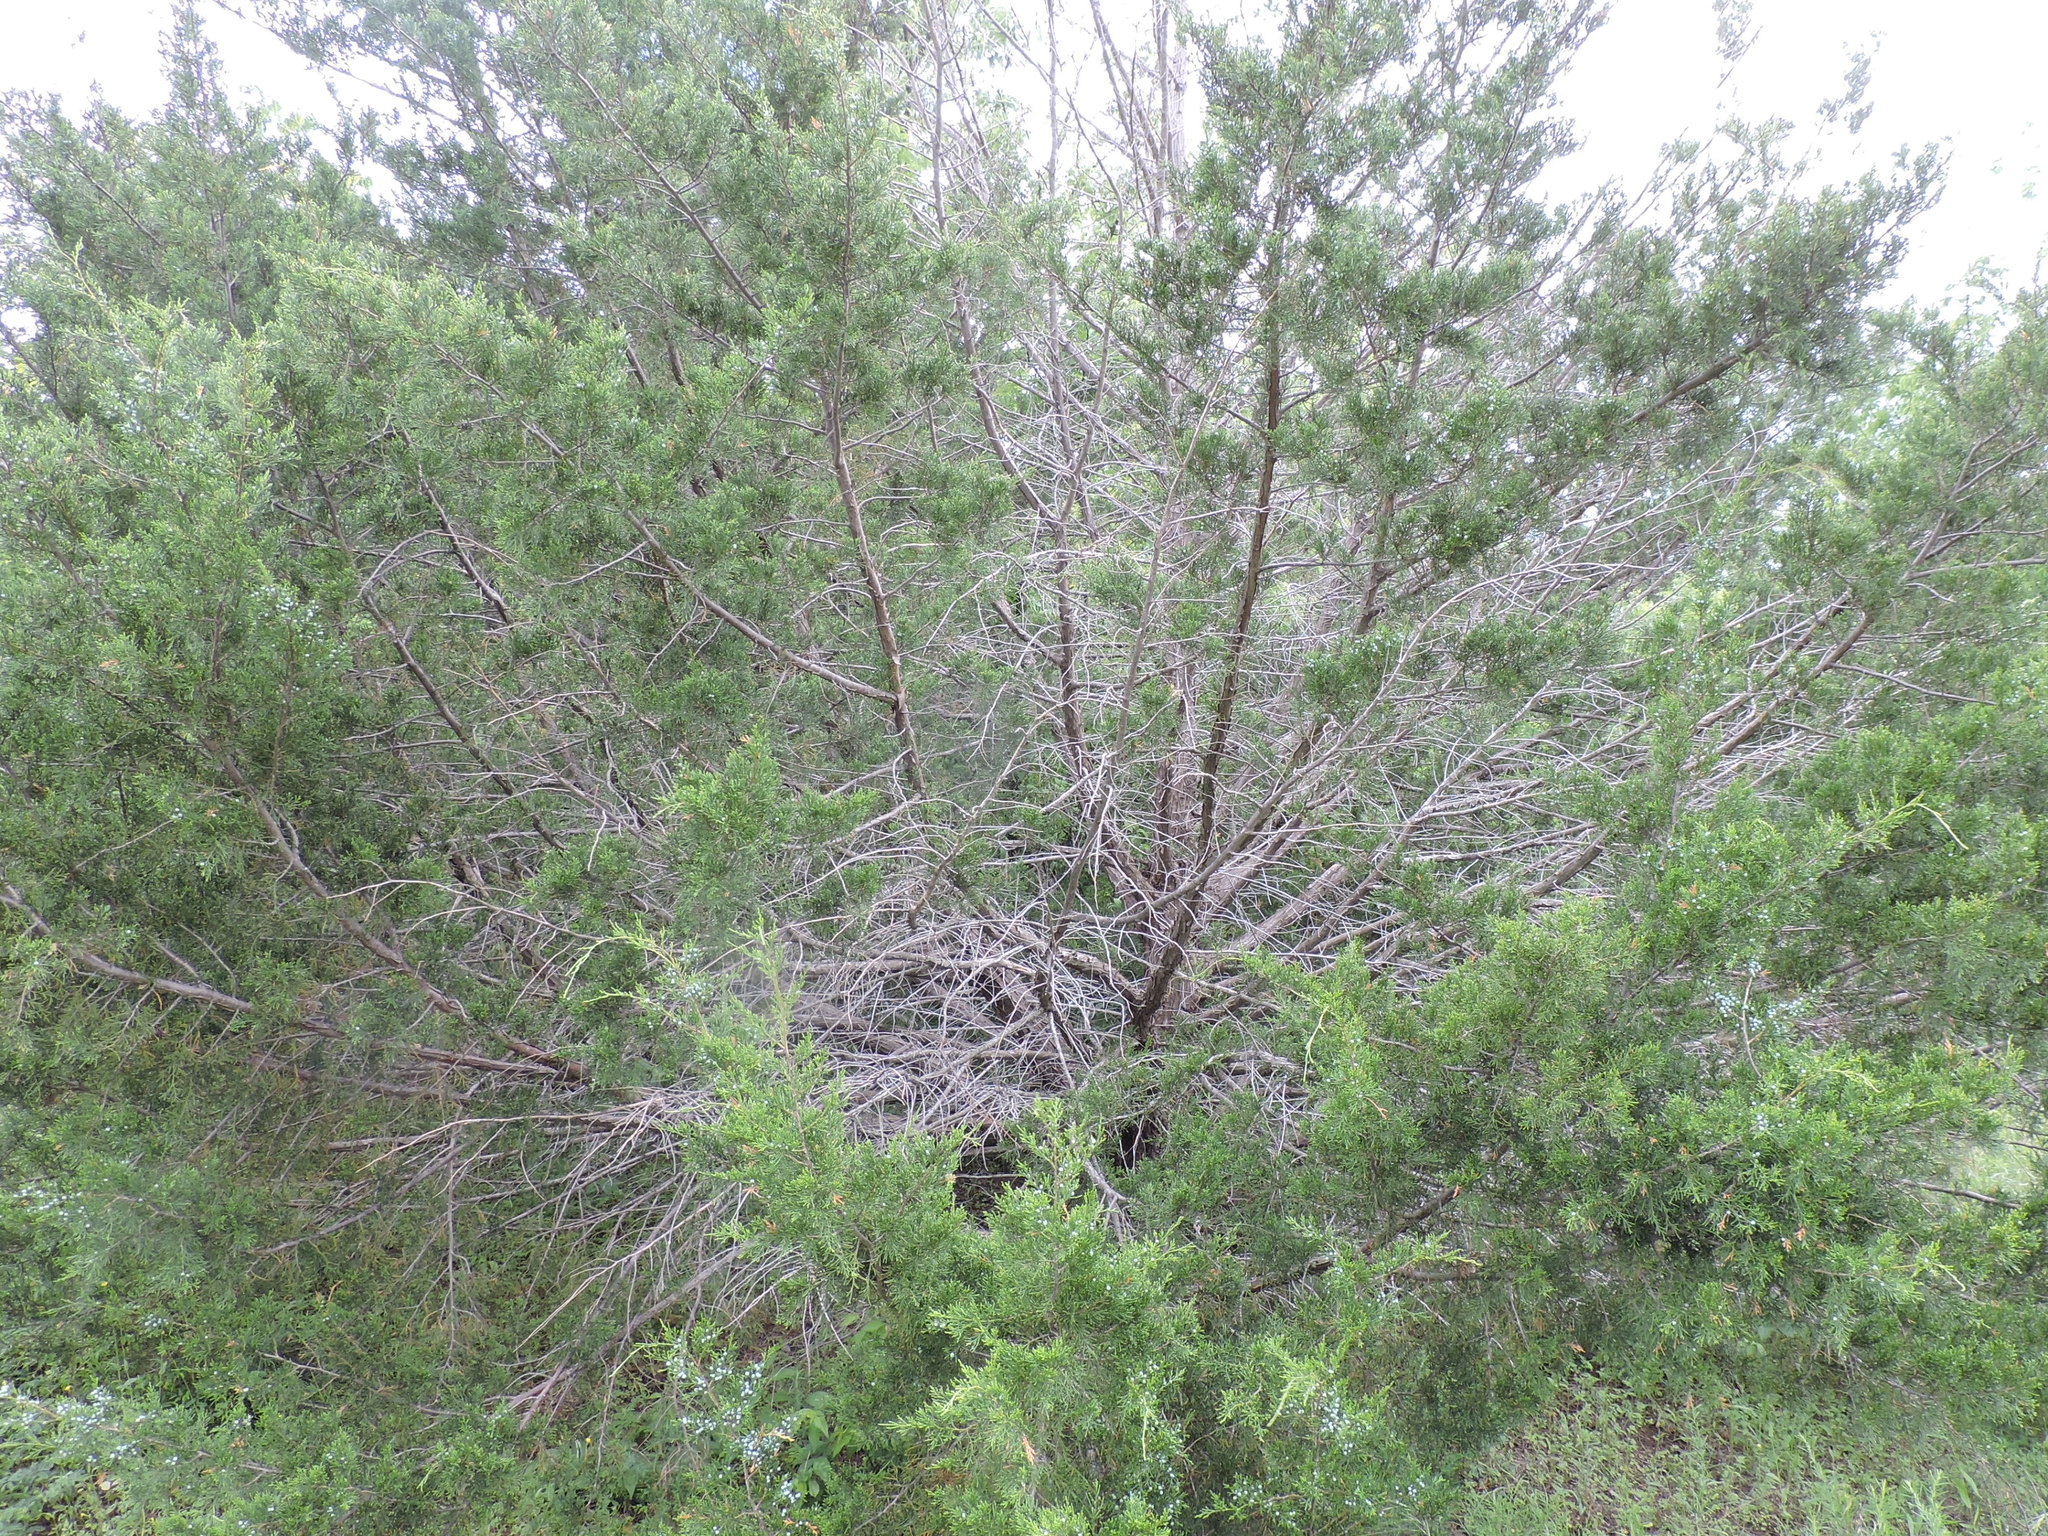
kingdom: Plantae
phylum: Tracheophyta
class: Pinopsida
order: Pinales
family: Cupressaceae
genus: Juniperus
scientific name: Juniperus ashei
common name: Mexican juniper
